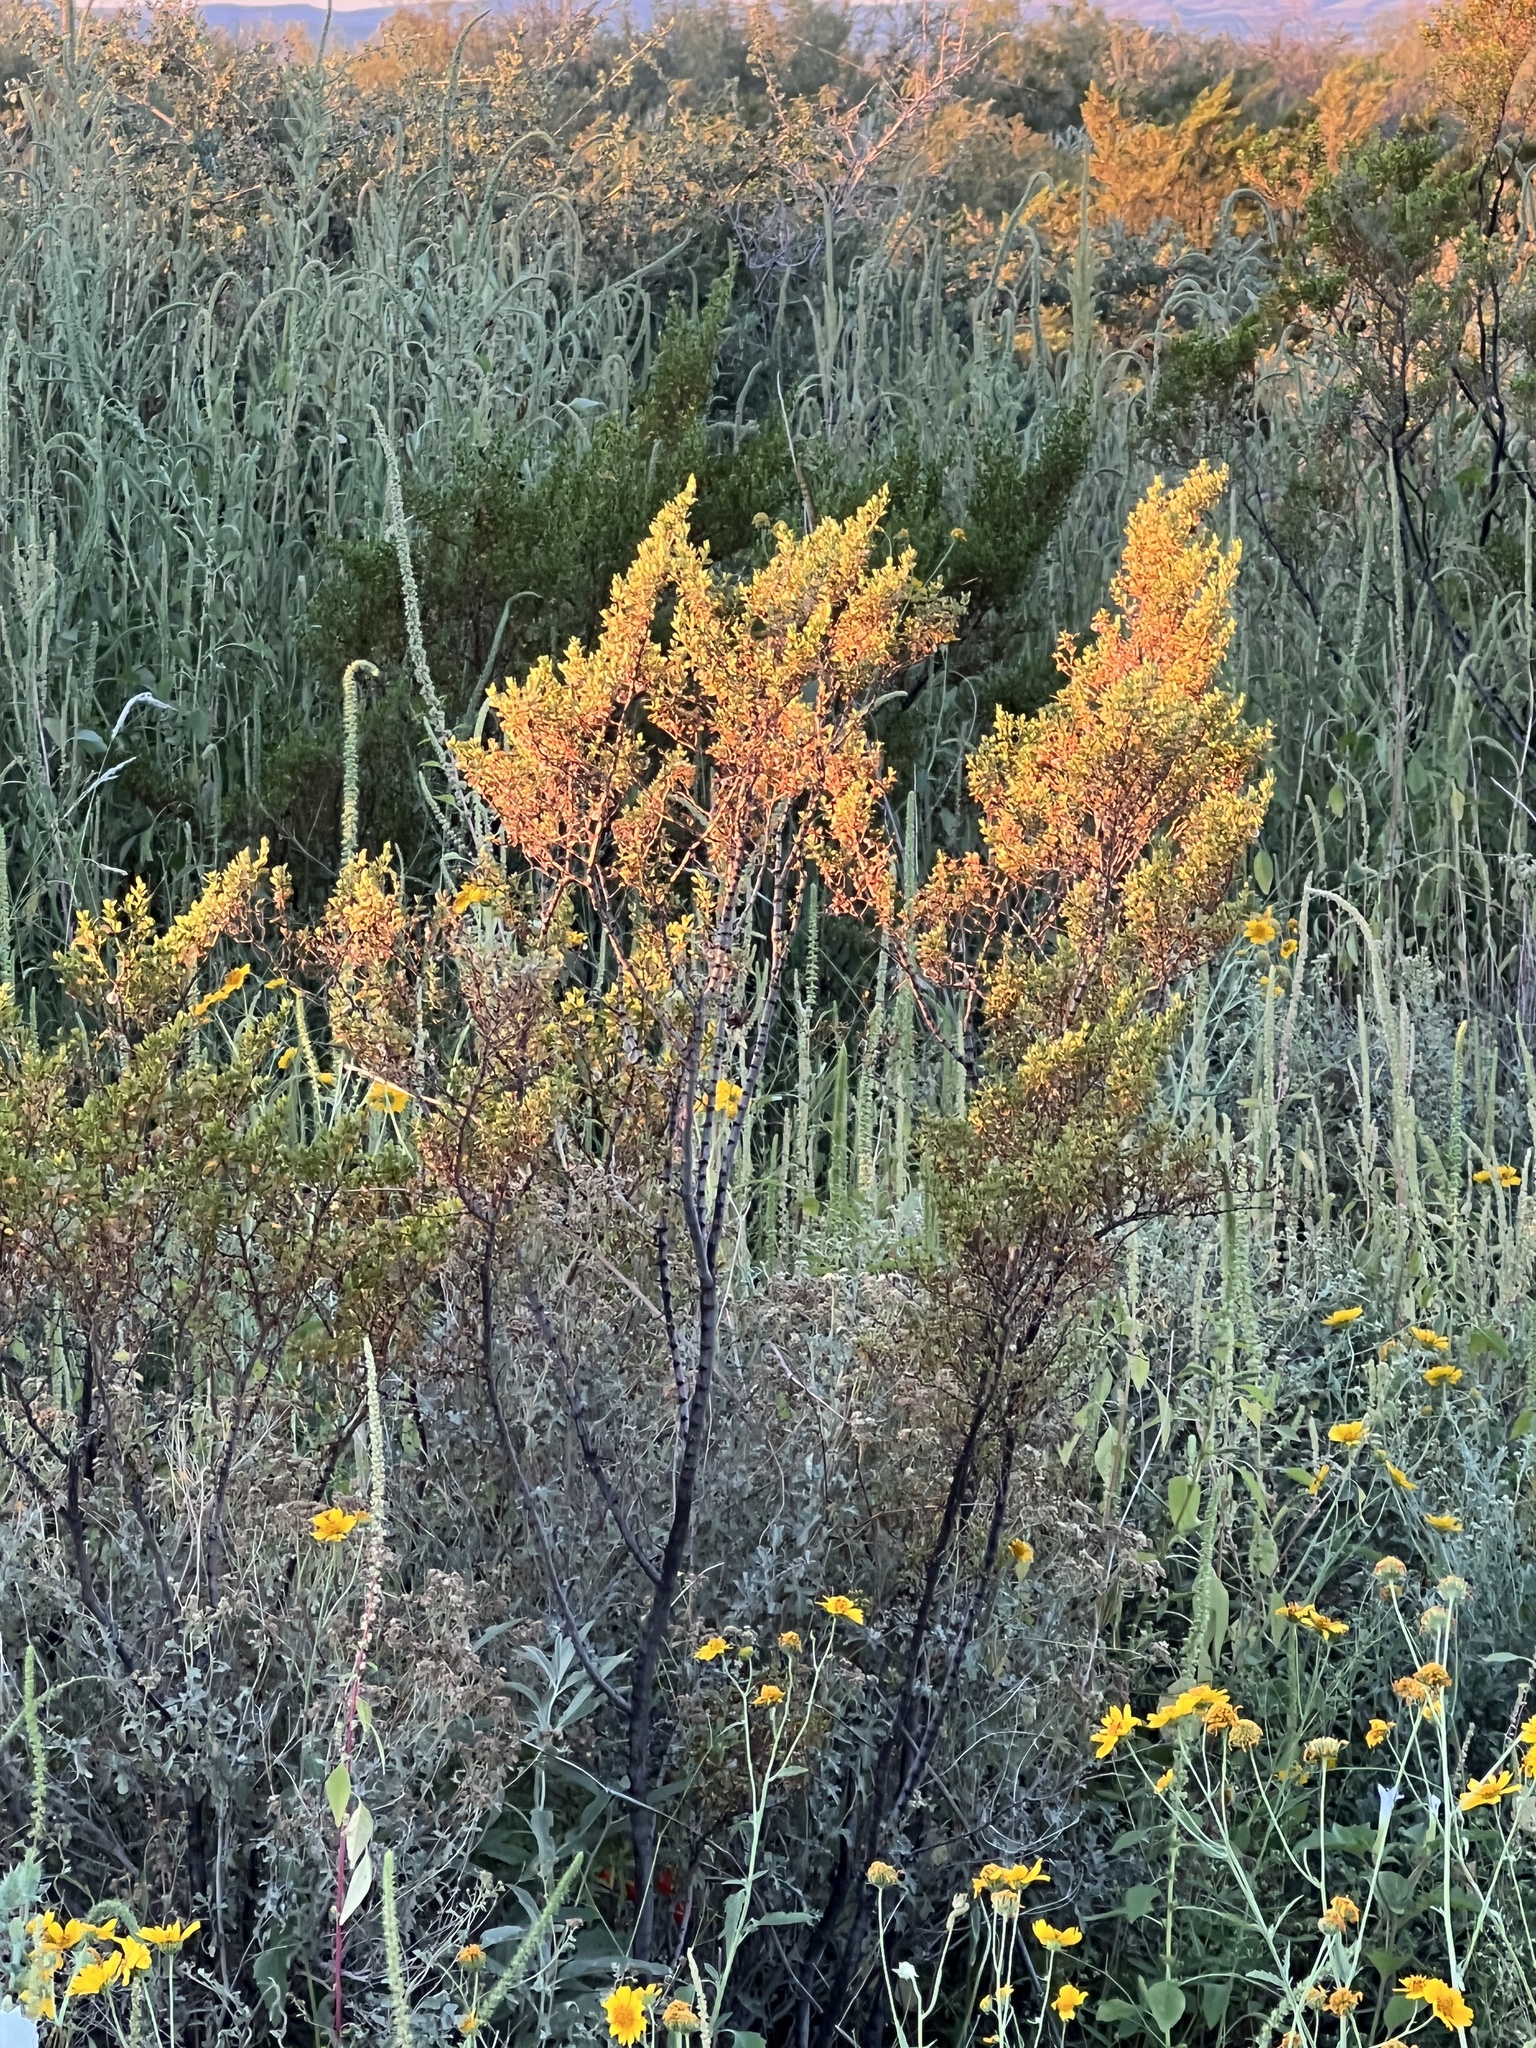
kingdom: Plantae
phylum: Tracheophyta
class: Magnoliopsida
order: Zygophyllales
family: Zygophyllaceae
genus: Larrea
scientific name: Larrea tridentata
